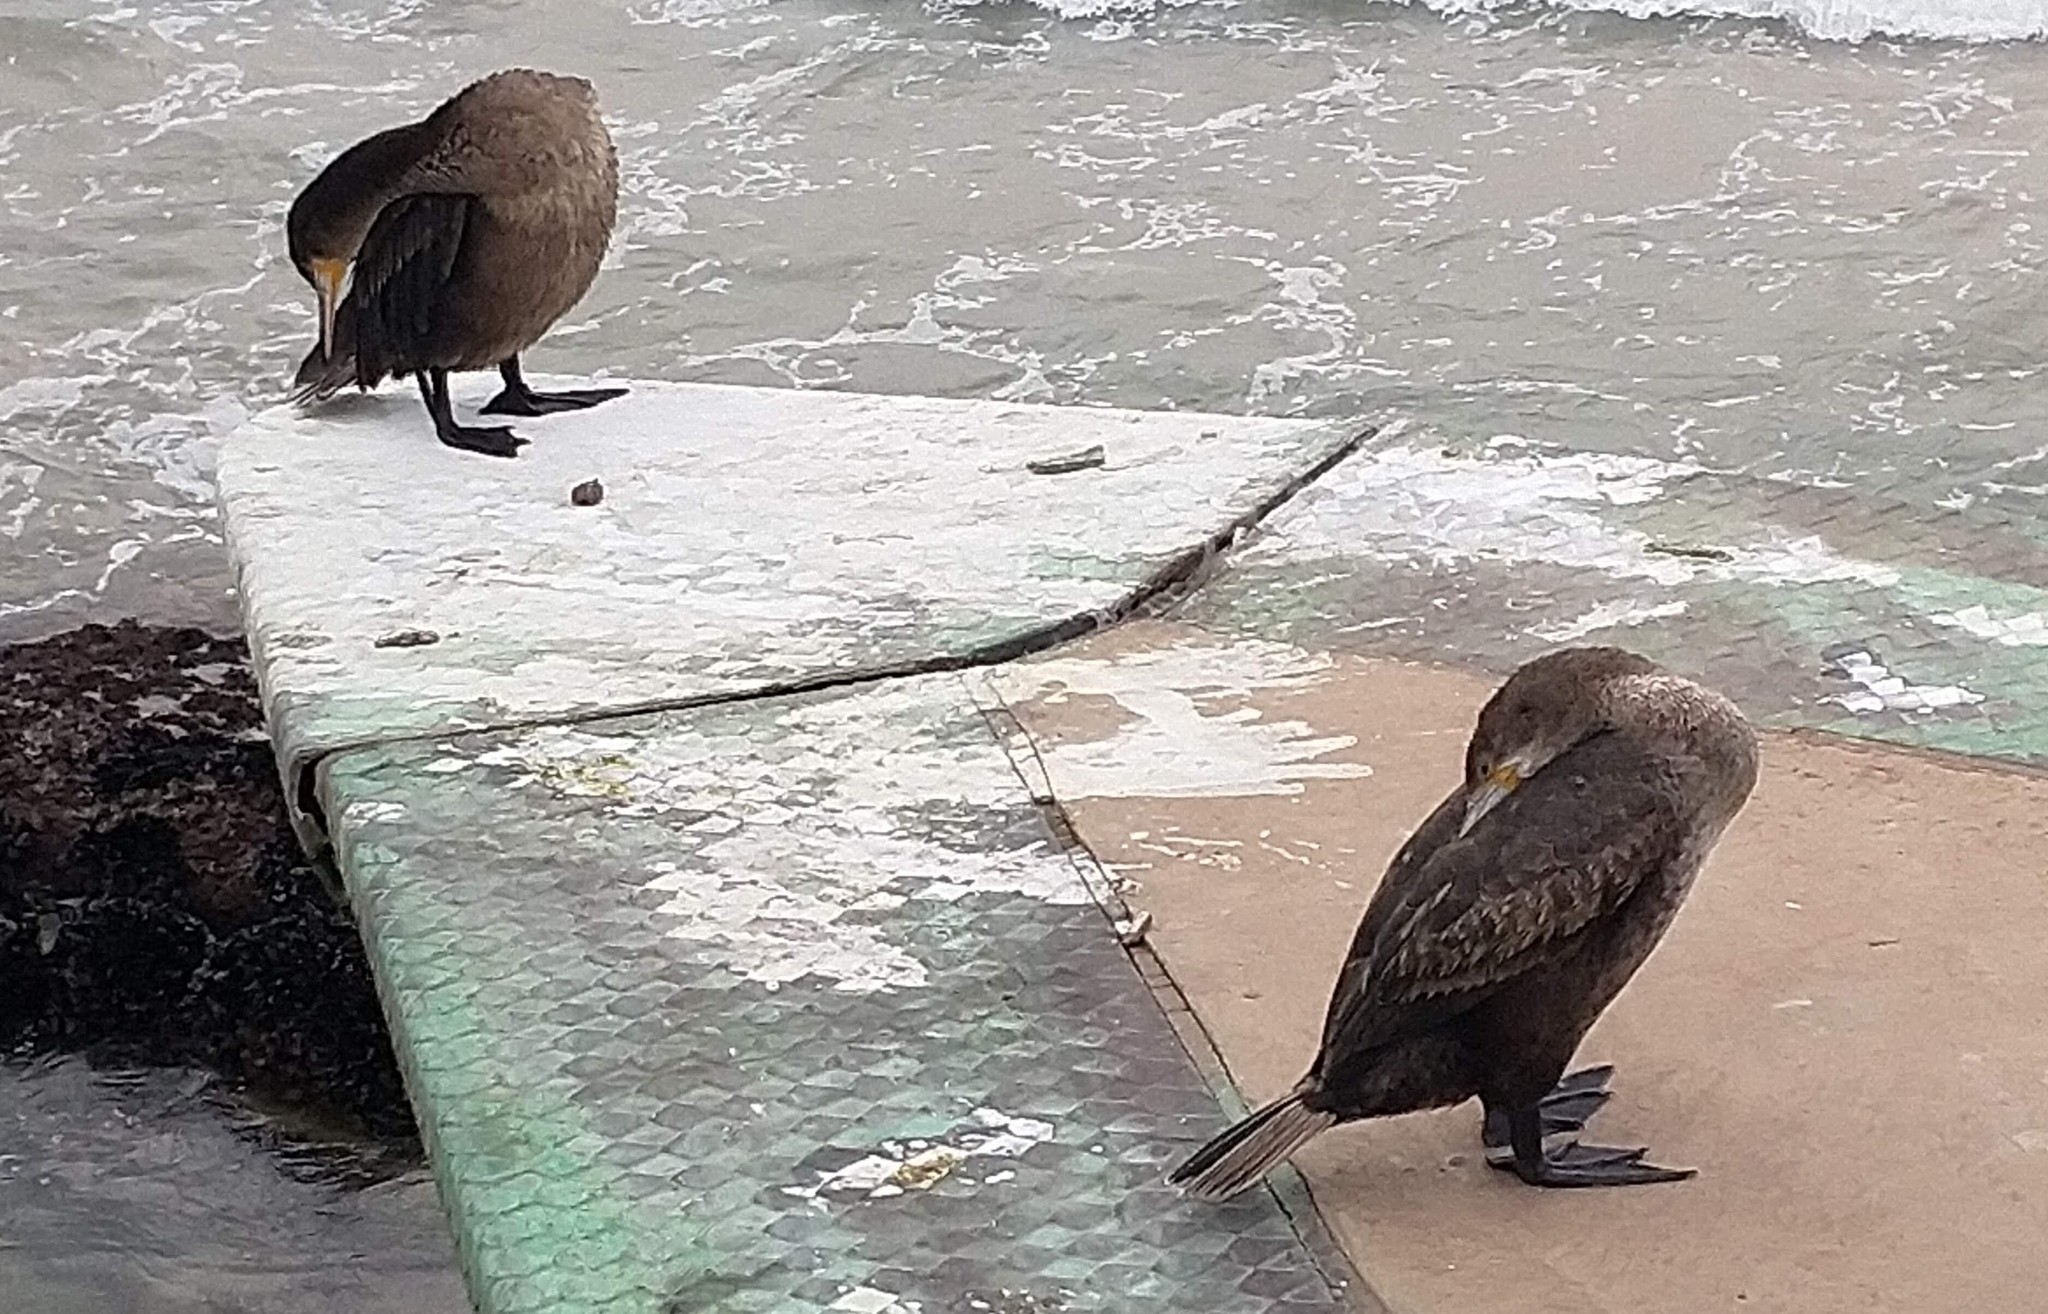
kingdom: Animalia
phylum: Chordata
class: Aves
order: Suliformes
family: Phalacrocoracidae
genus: Phalacrocorax
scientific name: Phalacrocorax capensis
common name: Cape cormorant
